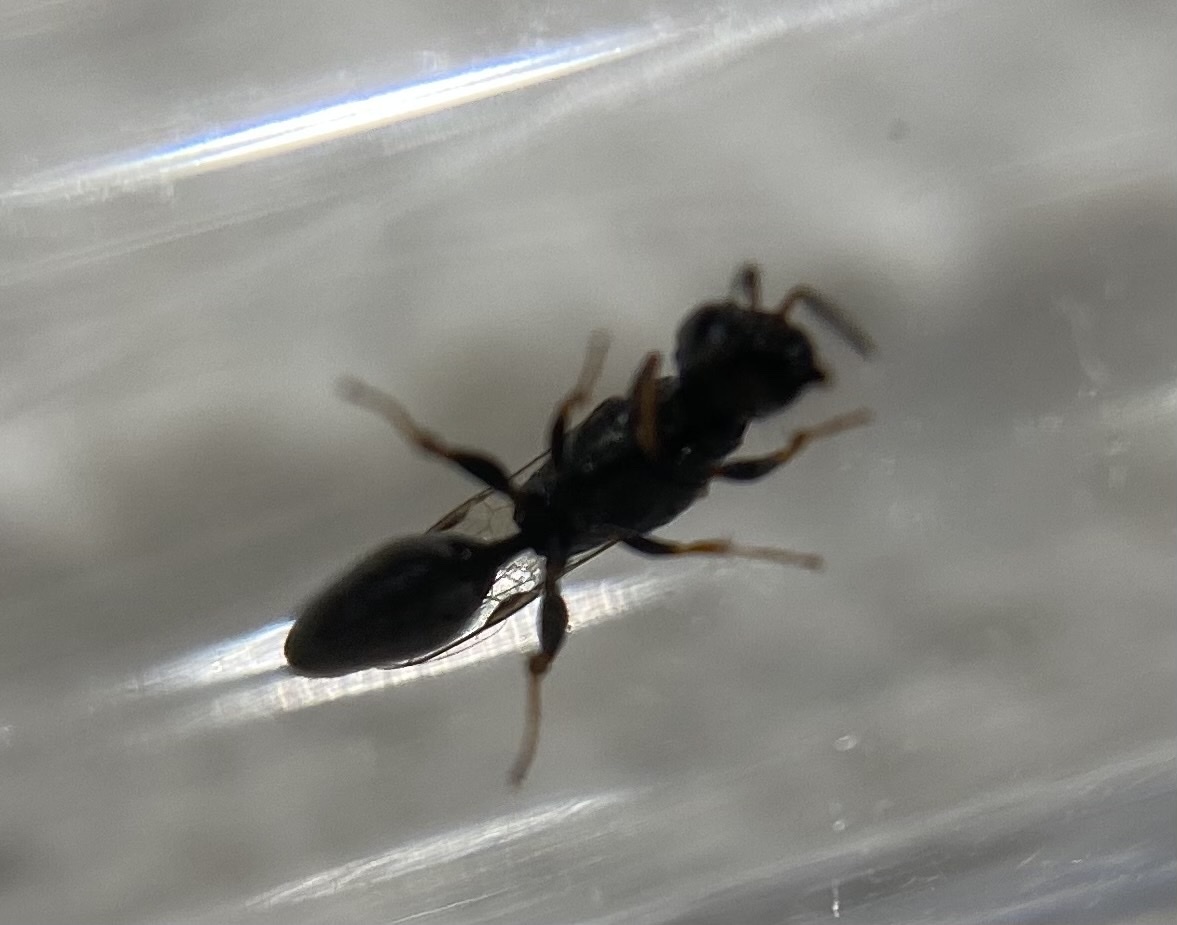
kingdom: Animalia
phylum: Arthropoda
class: Insecta
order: Hymenoptera
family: Crabronidae
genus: Polemistus
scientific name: Polemistus luzonensis
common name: Wasp
